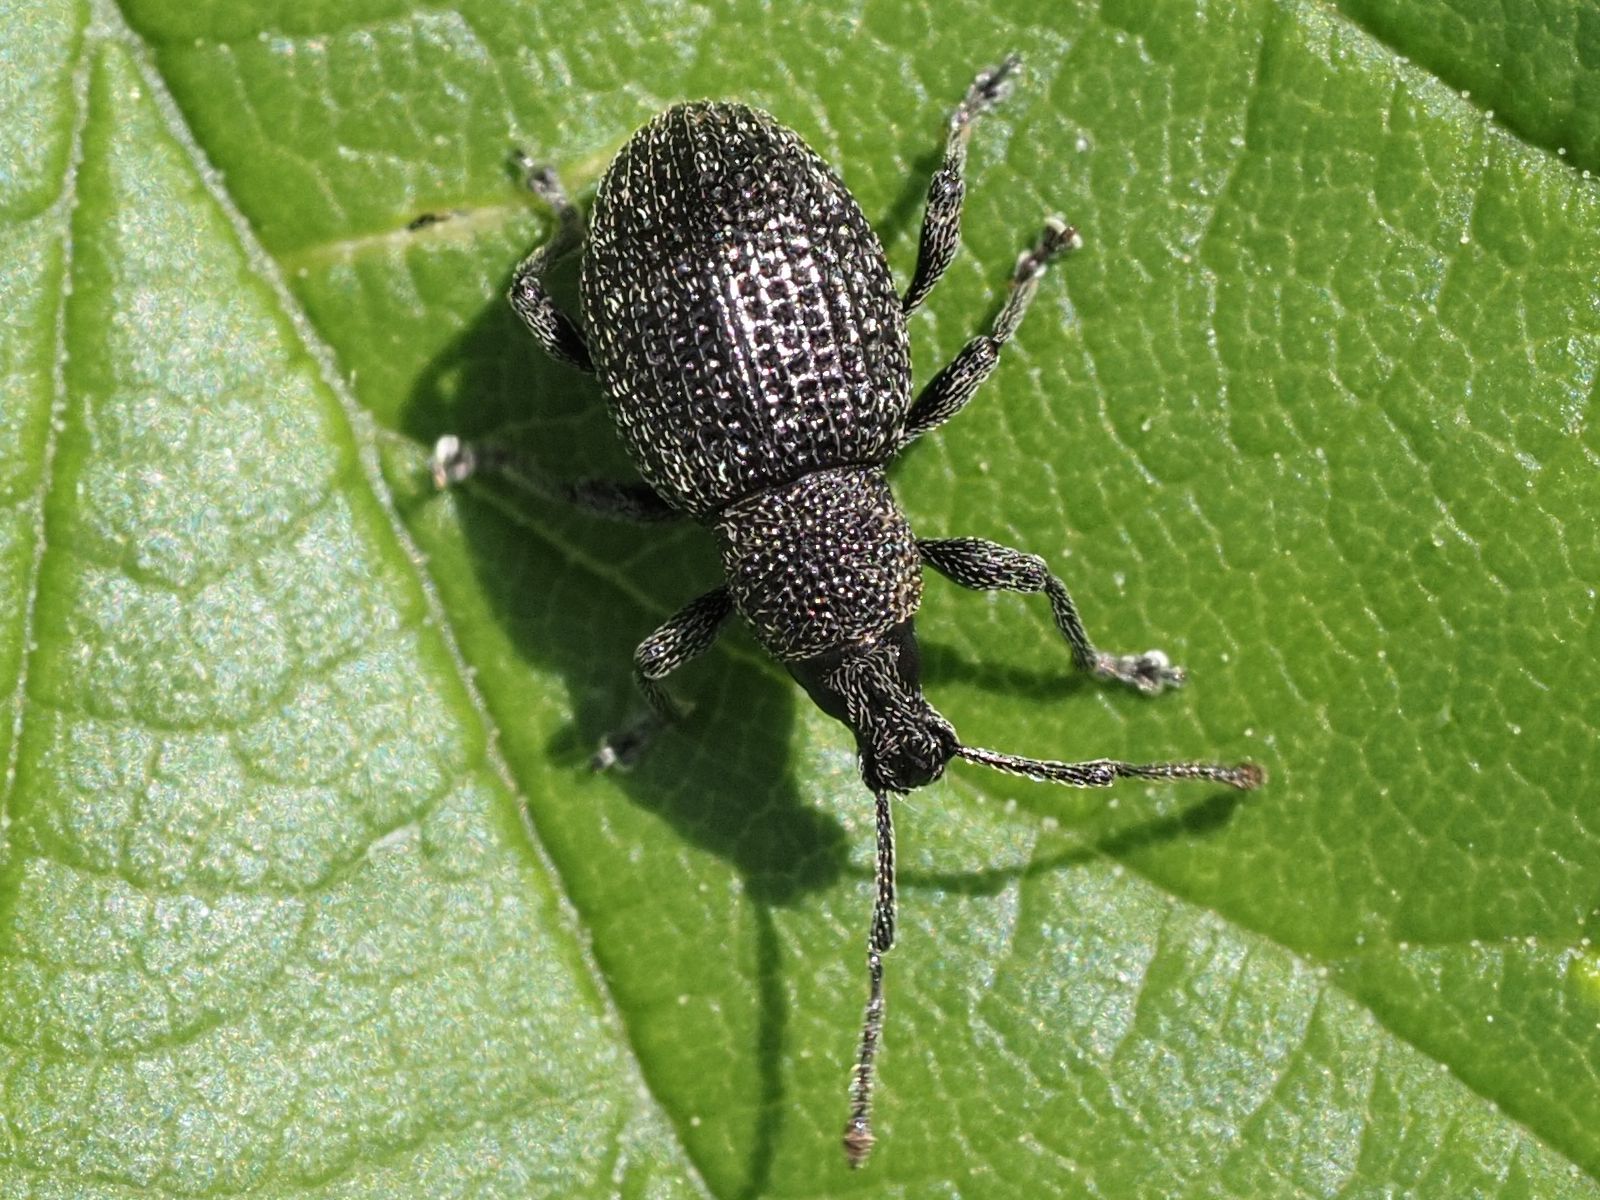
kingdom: Animalia
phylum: Arthropoda
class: Insecta
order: Coleoptera
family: Curculionidae
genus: Otiorhynchus
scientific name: Otiorhynchus pinastri
